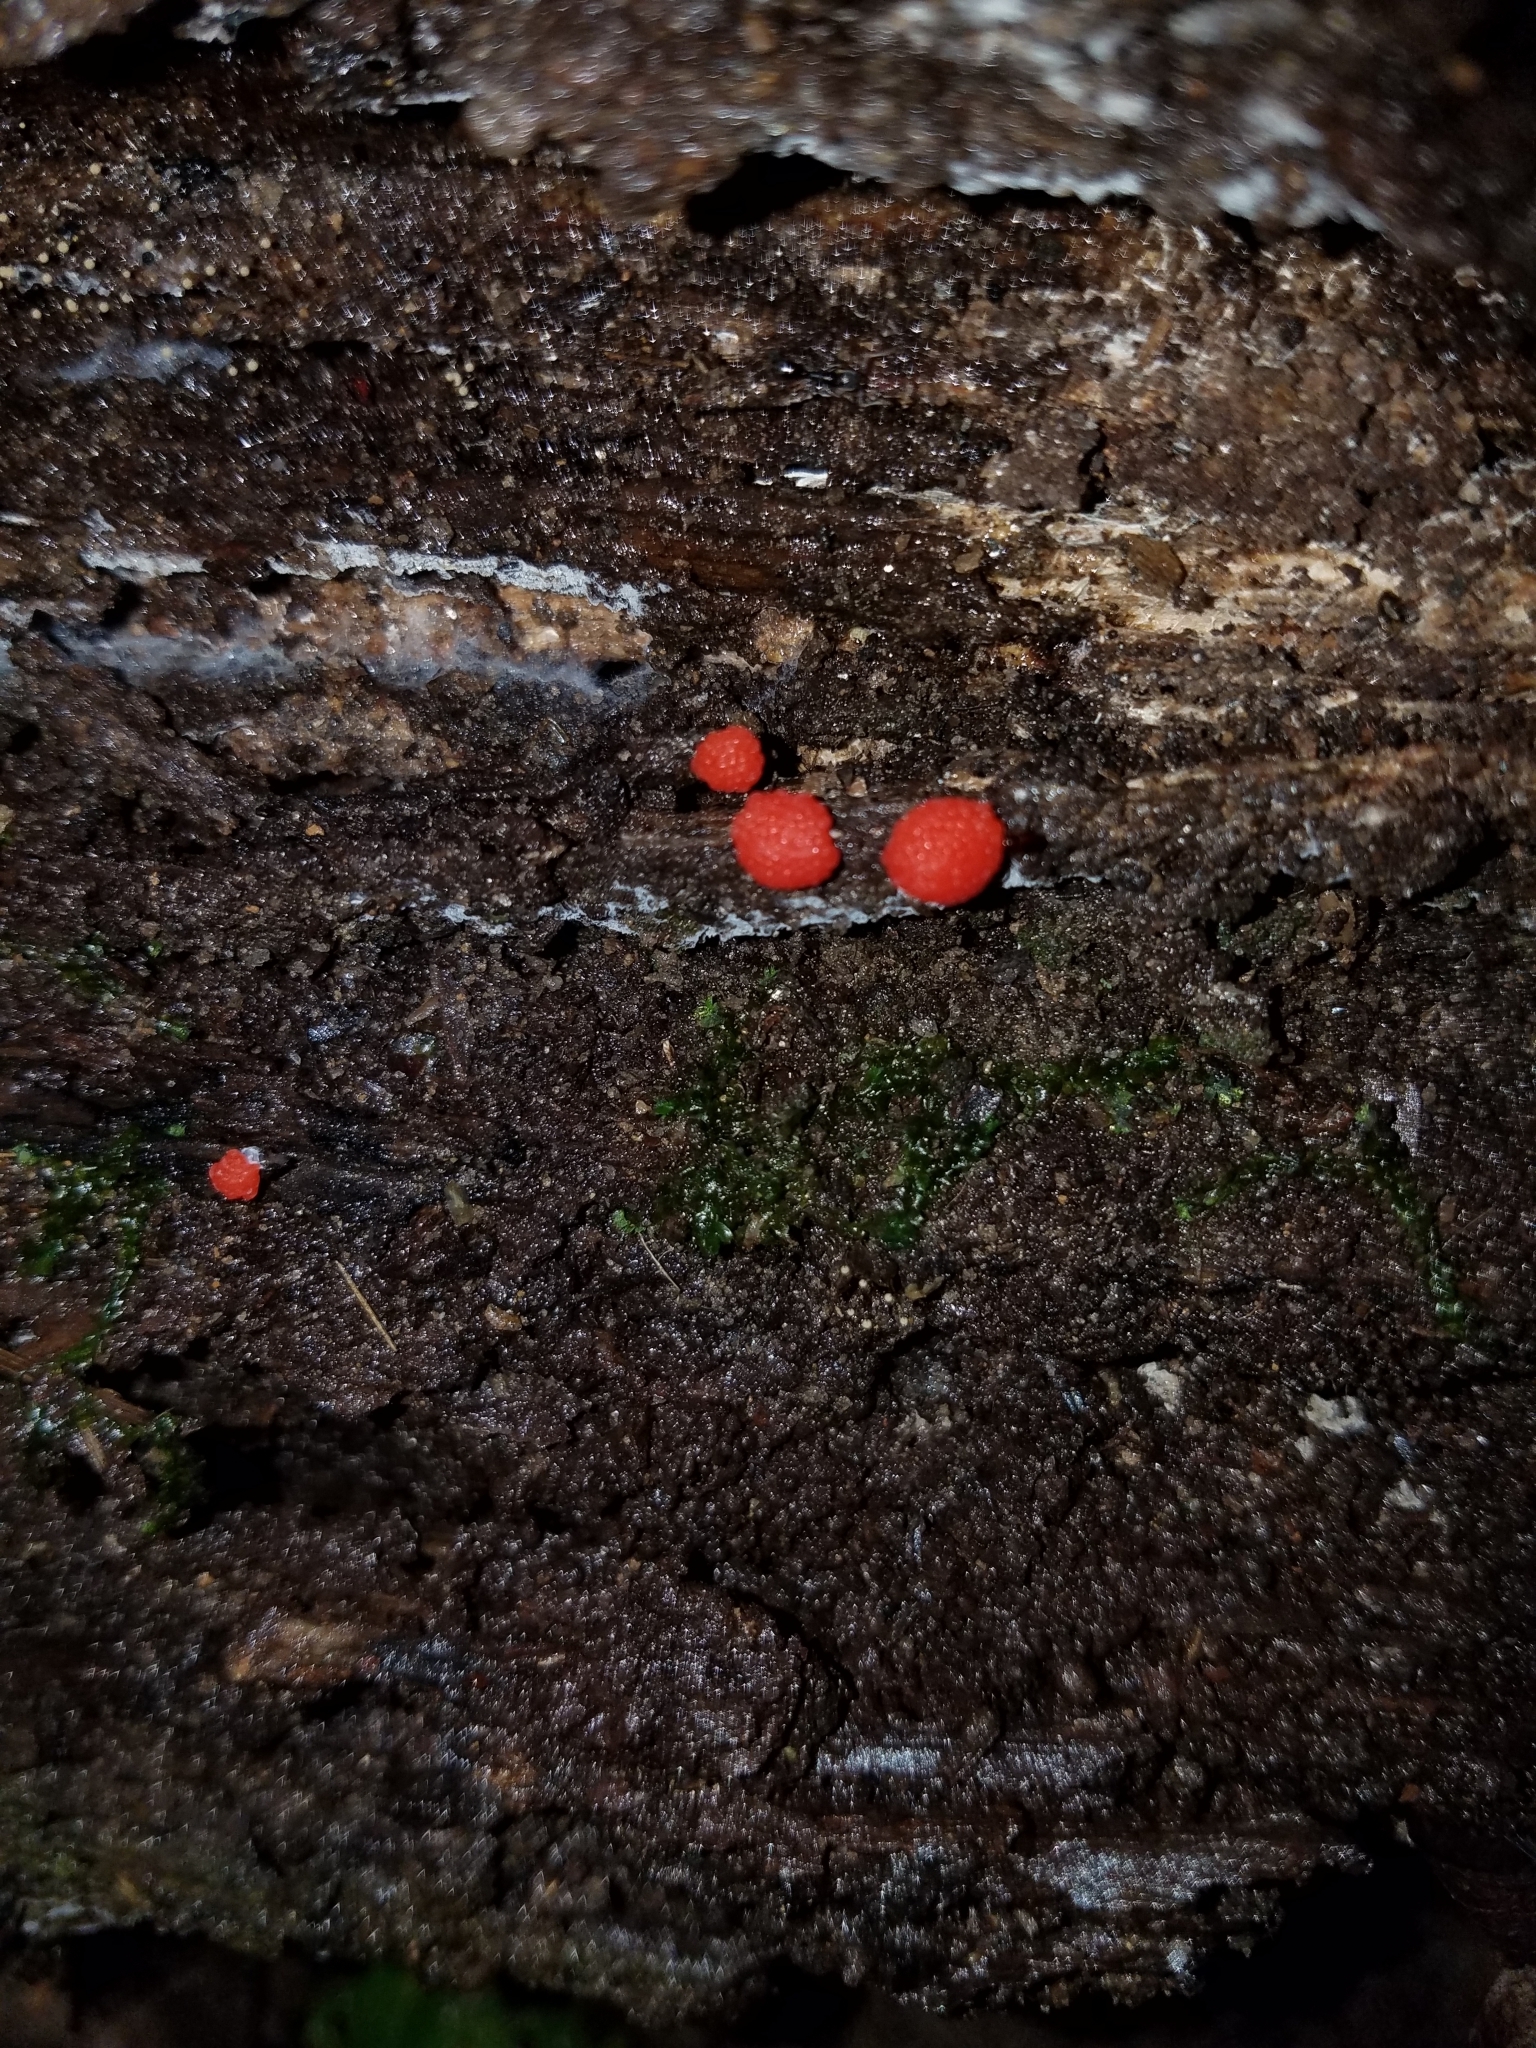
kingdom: Protozoa
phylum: Mycetozoa
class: Myxomycetes
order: Cribrariales
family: Tubiferaceae
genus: Tubifera
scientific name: Tubifera ferruginosa
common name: Red raspberry slime mold
